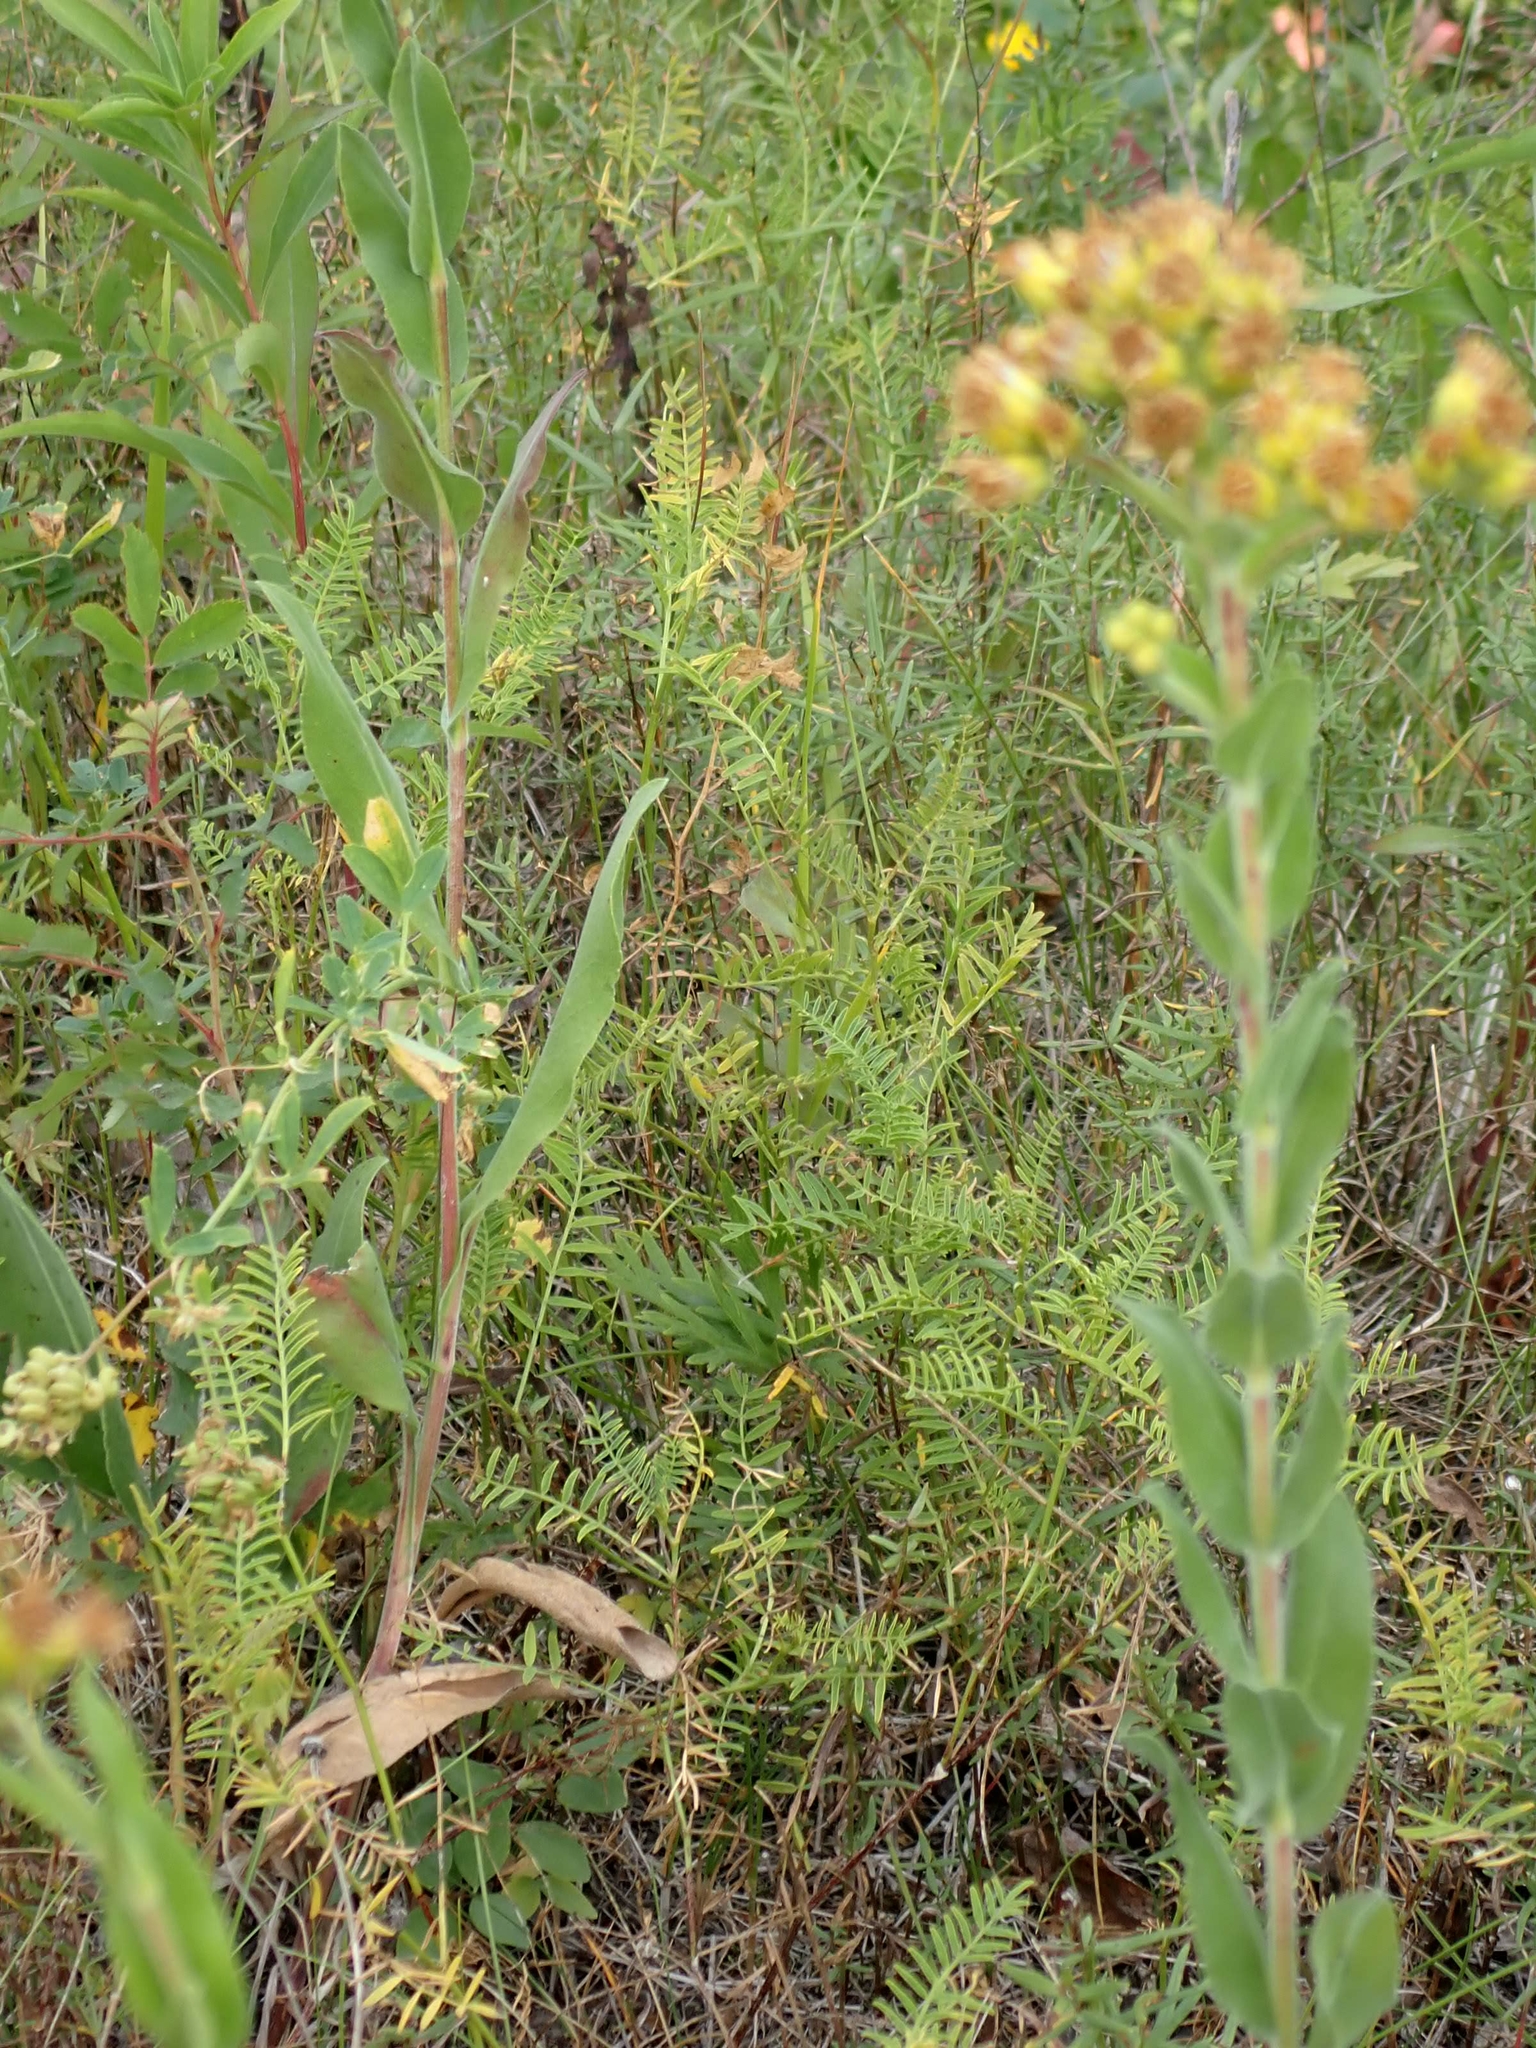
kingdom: Plantae
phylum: Tracheophyta
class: Magnoliopsida
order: Asterales
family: Asteraceae
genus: Solidago
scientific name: Solidago rigida
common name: Rigid goldenrod
